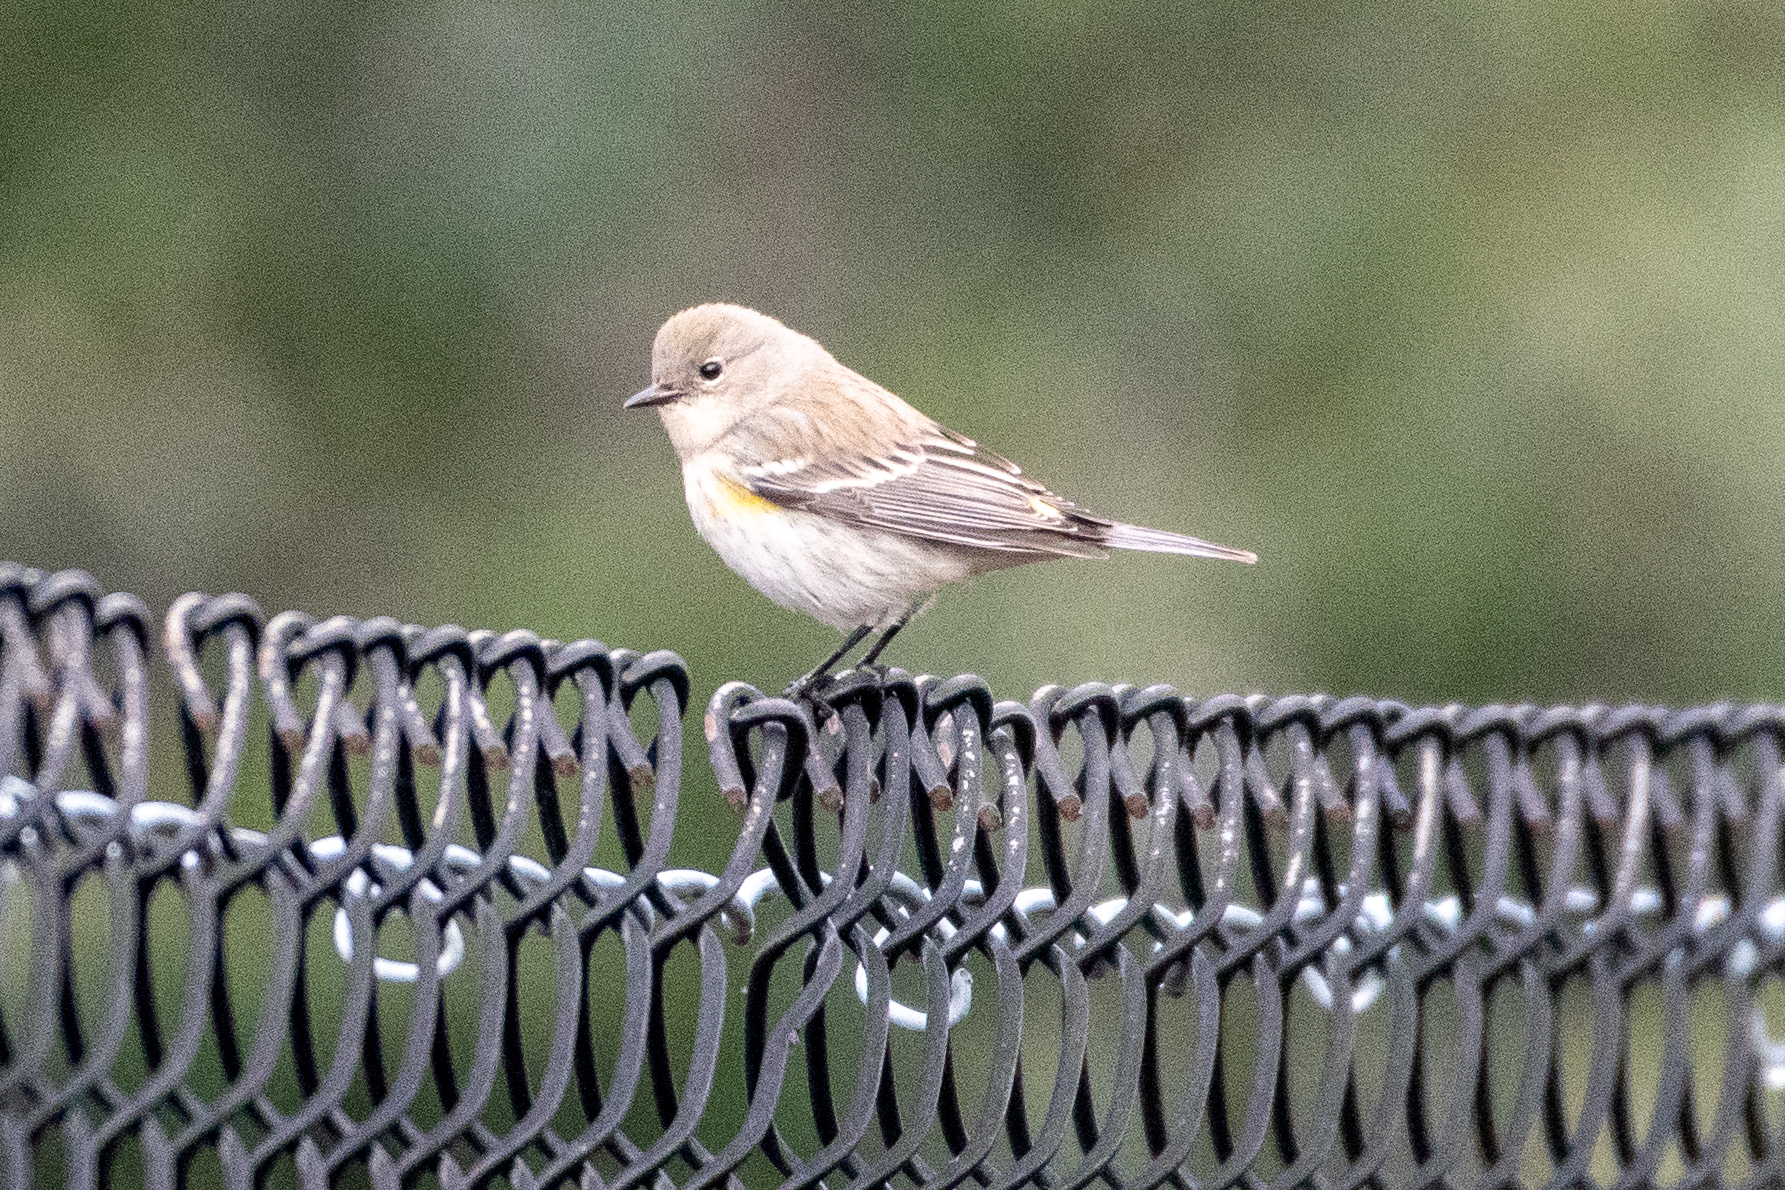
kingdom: Animalia
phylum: Chordata
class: Aves
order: Passeriformes
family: Parulidae
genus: Setophaga
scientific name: Setophaga coronata
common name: Myrtle warbler
